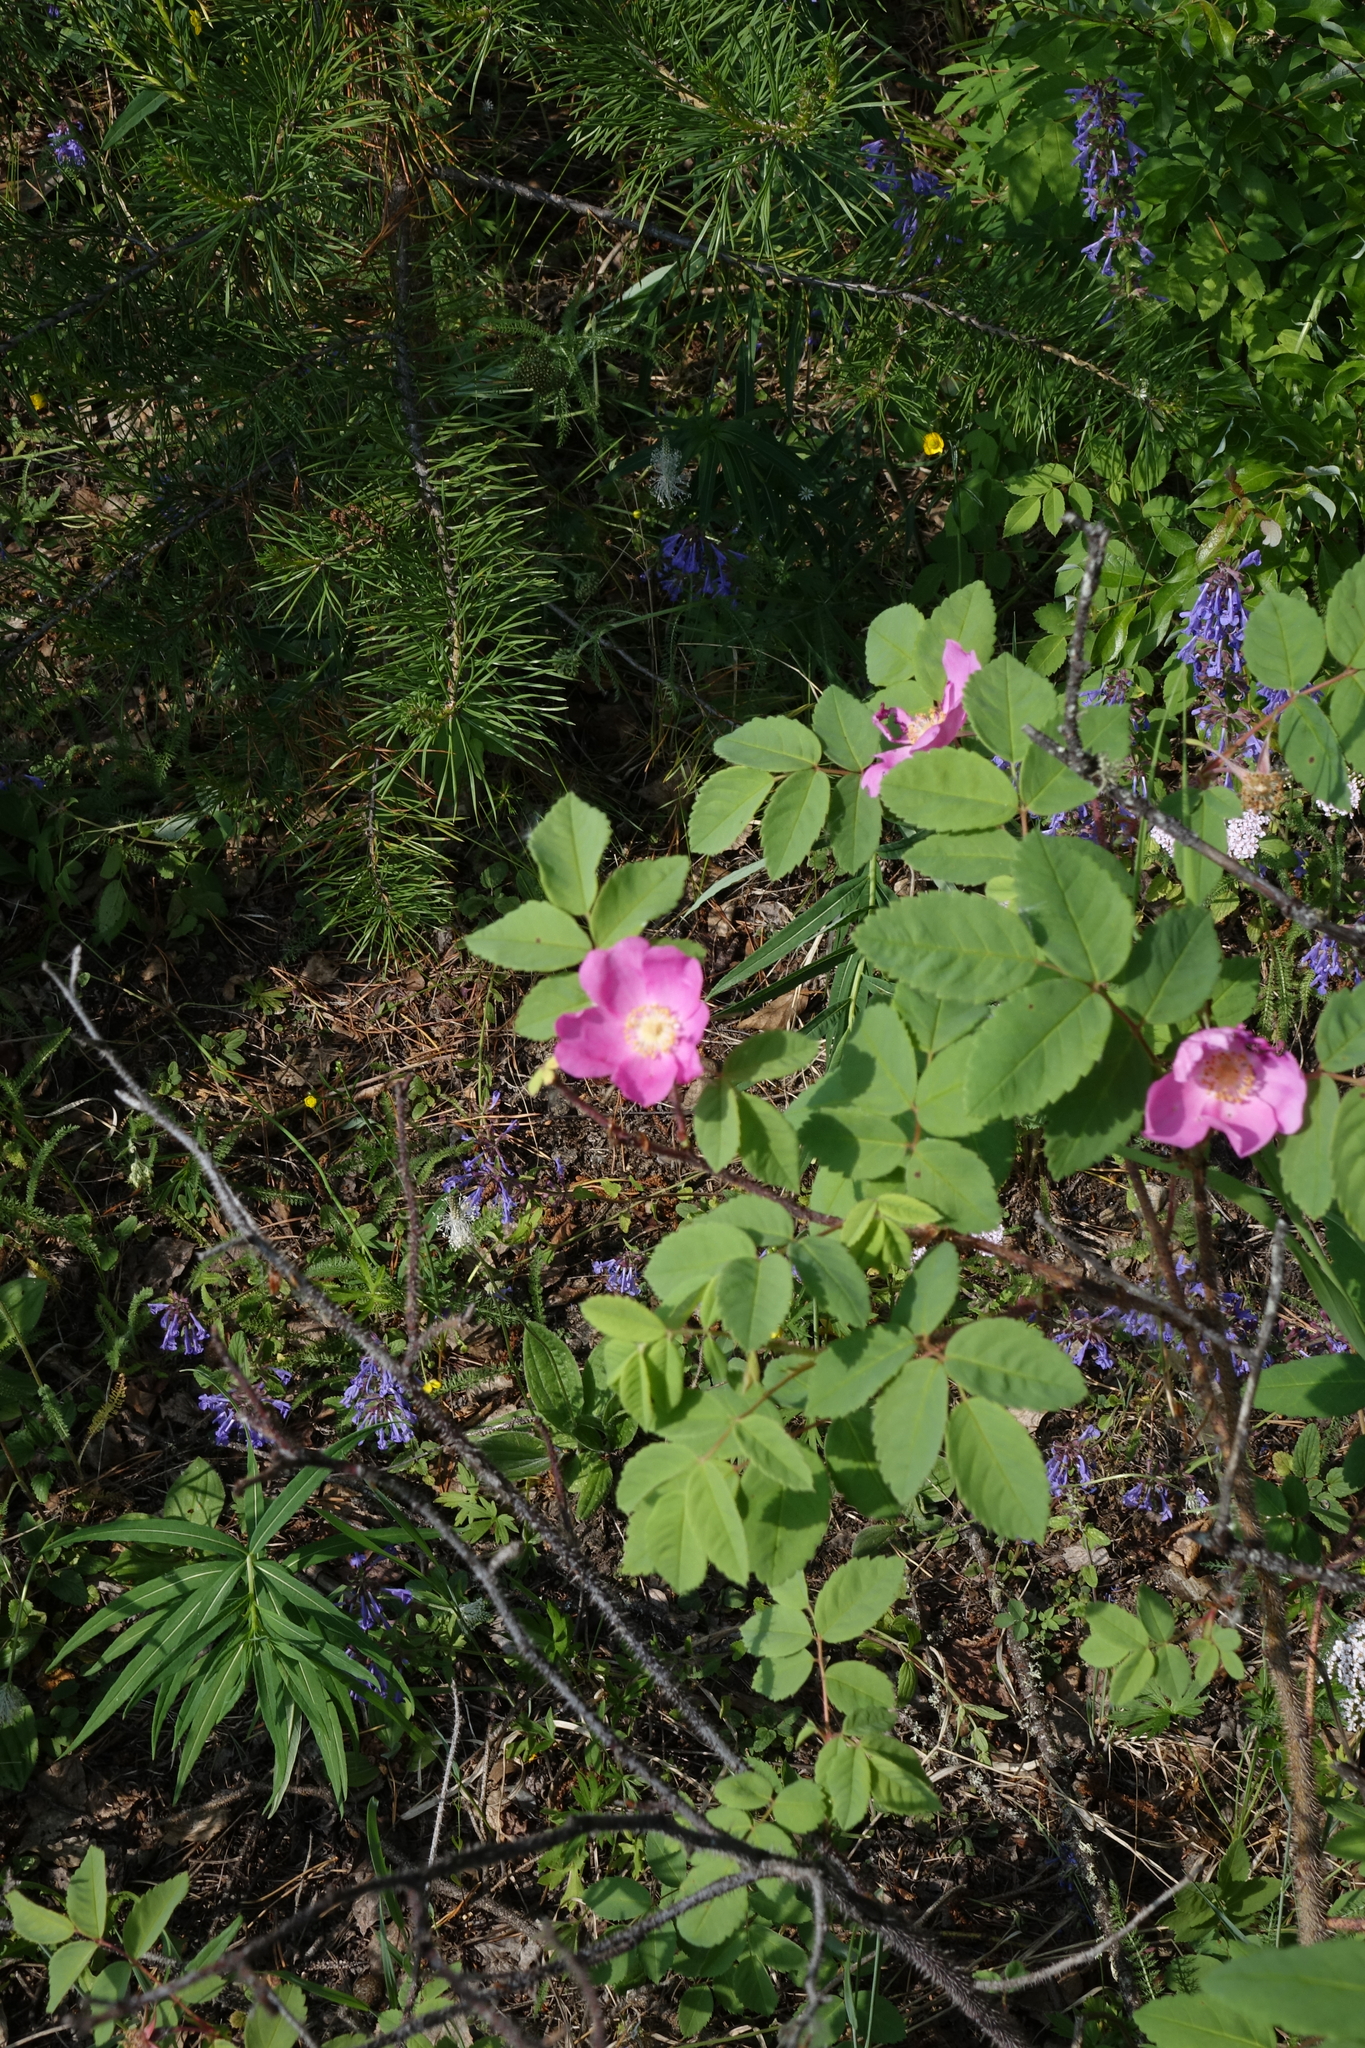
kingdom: Plantae
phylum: Tracheophyta
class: Magnoliopsida
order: Rosales
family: Rosaceae
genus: Rosa
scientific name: Rosa acicularis
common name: Prickly rose
